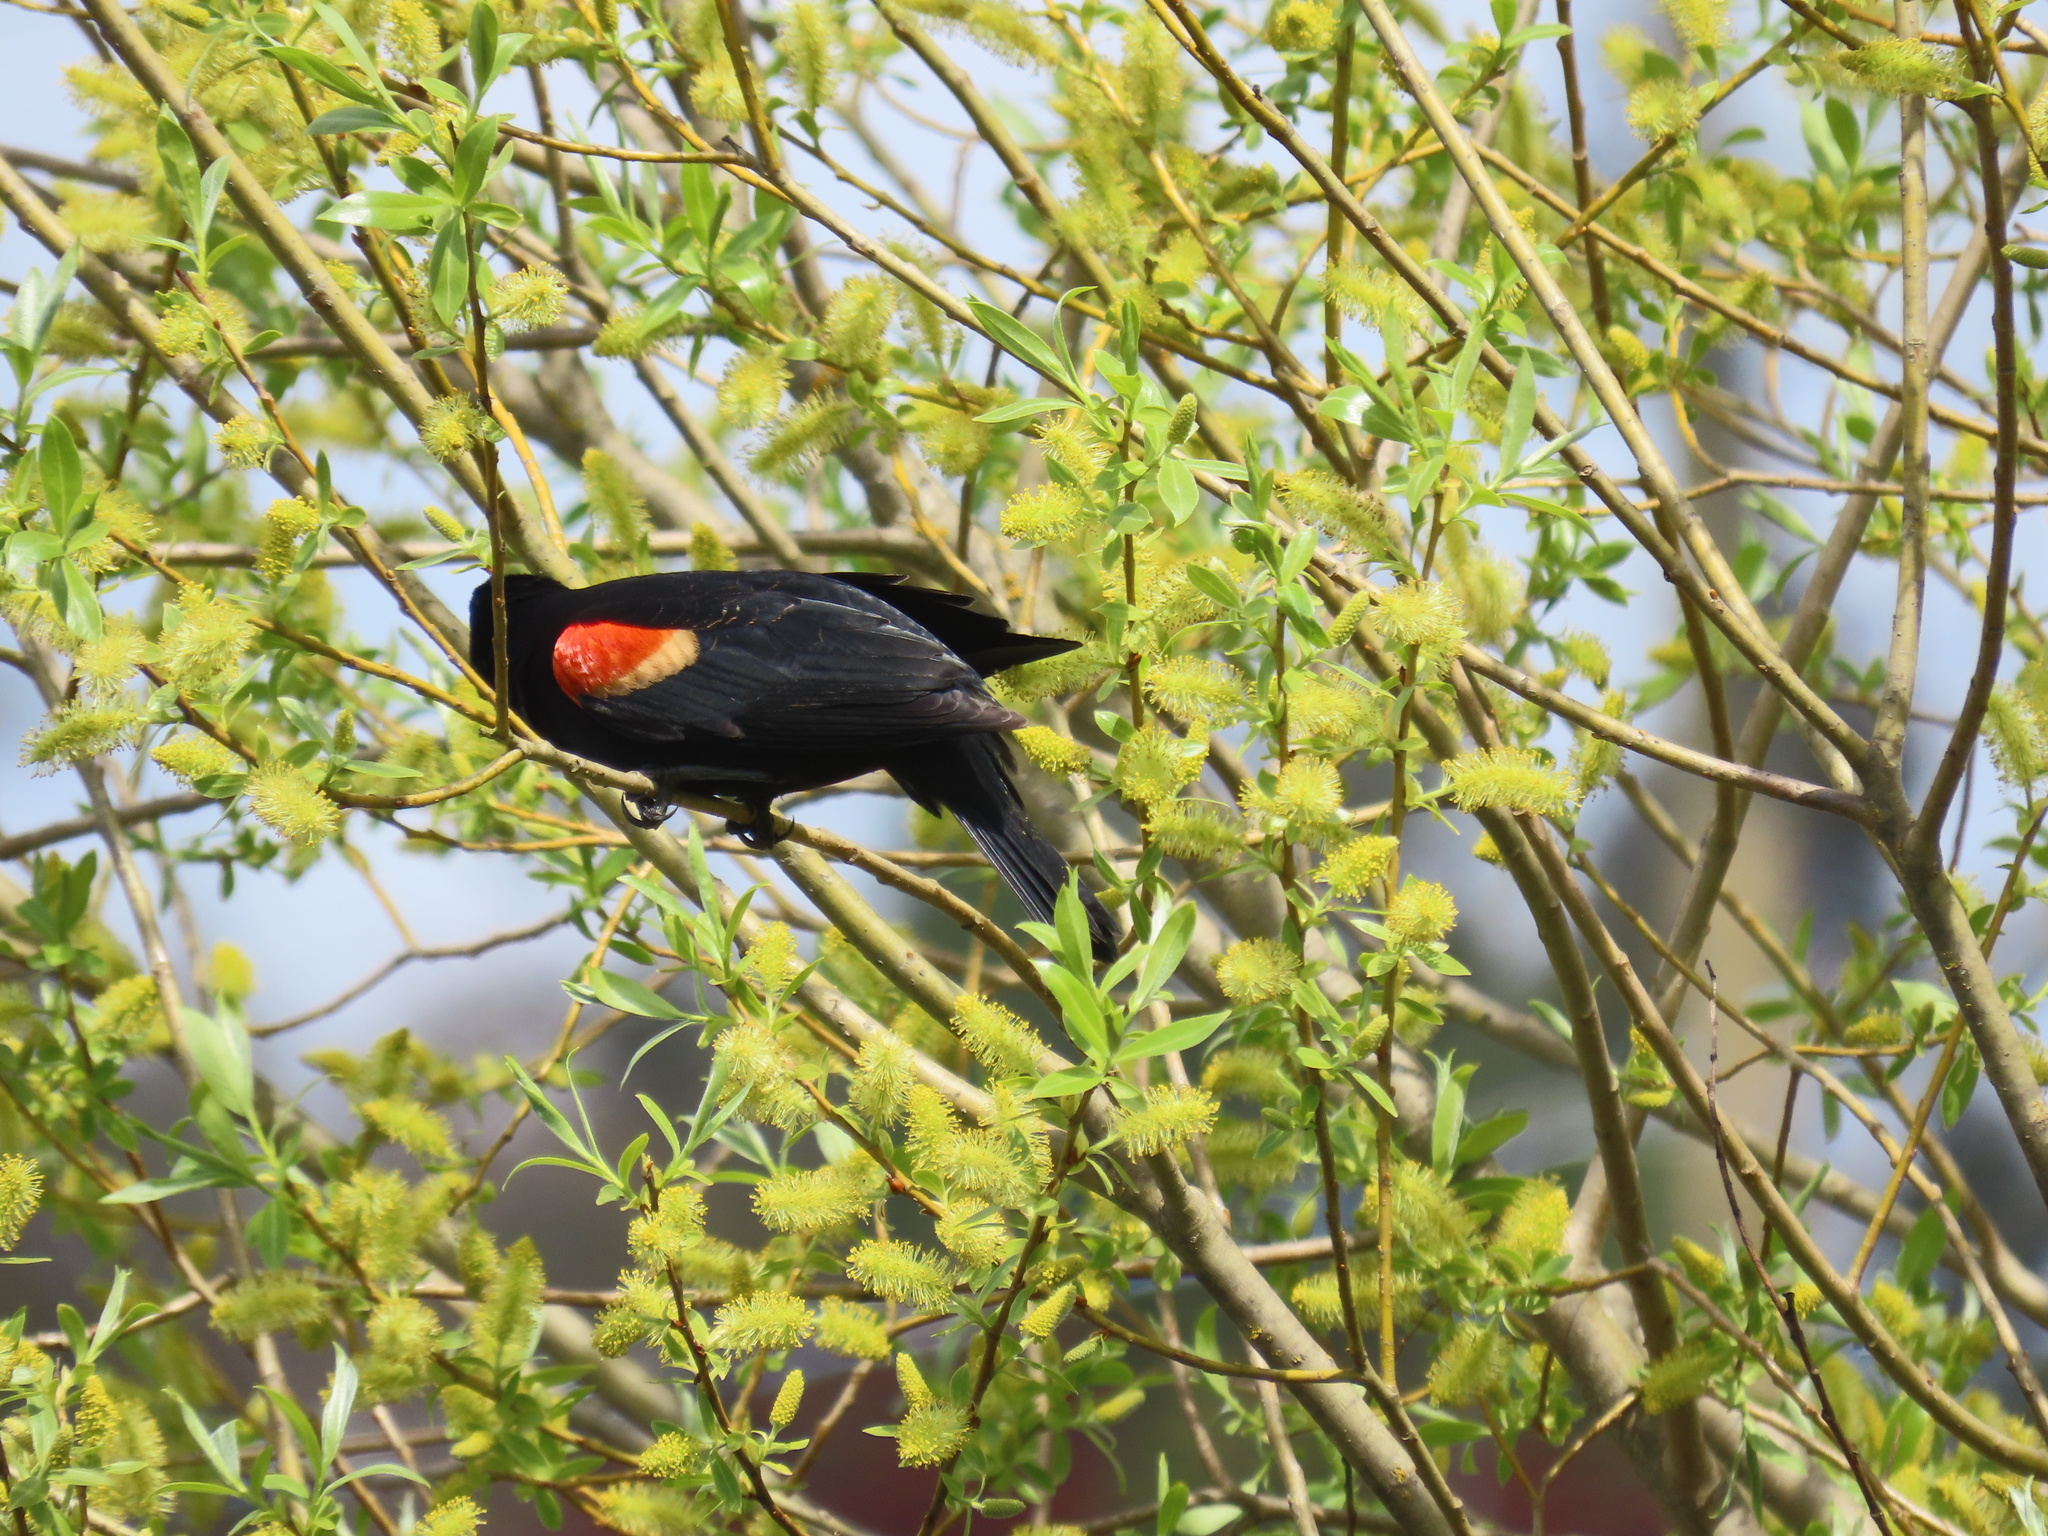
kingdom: Animalia
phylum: Chordata
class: Aves
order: Passeriformes
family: Icteridae
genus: Agelaius
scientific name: Agelaius phoeniceus
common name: Red-winged blackbird
